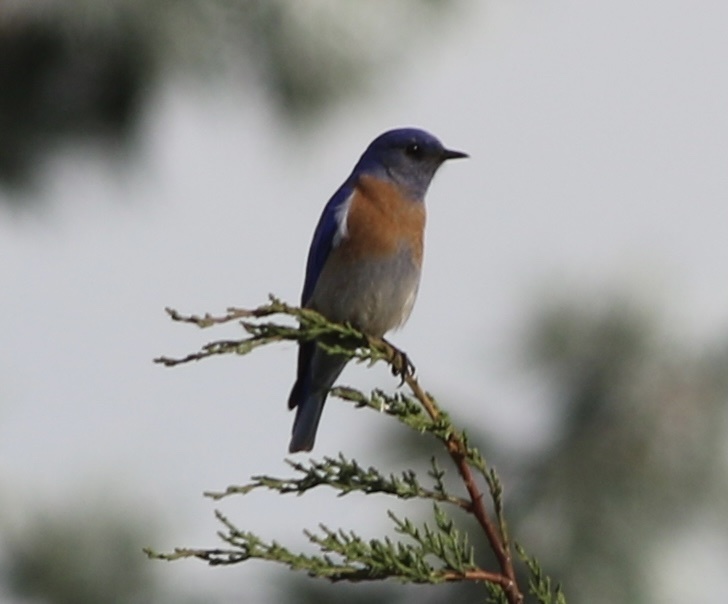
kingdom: Animalia
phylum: Chordata
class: Aves
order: Passeriformes
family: Turdidae
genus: Sialia
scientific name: Sialia mexicana
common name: Western bluebird
